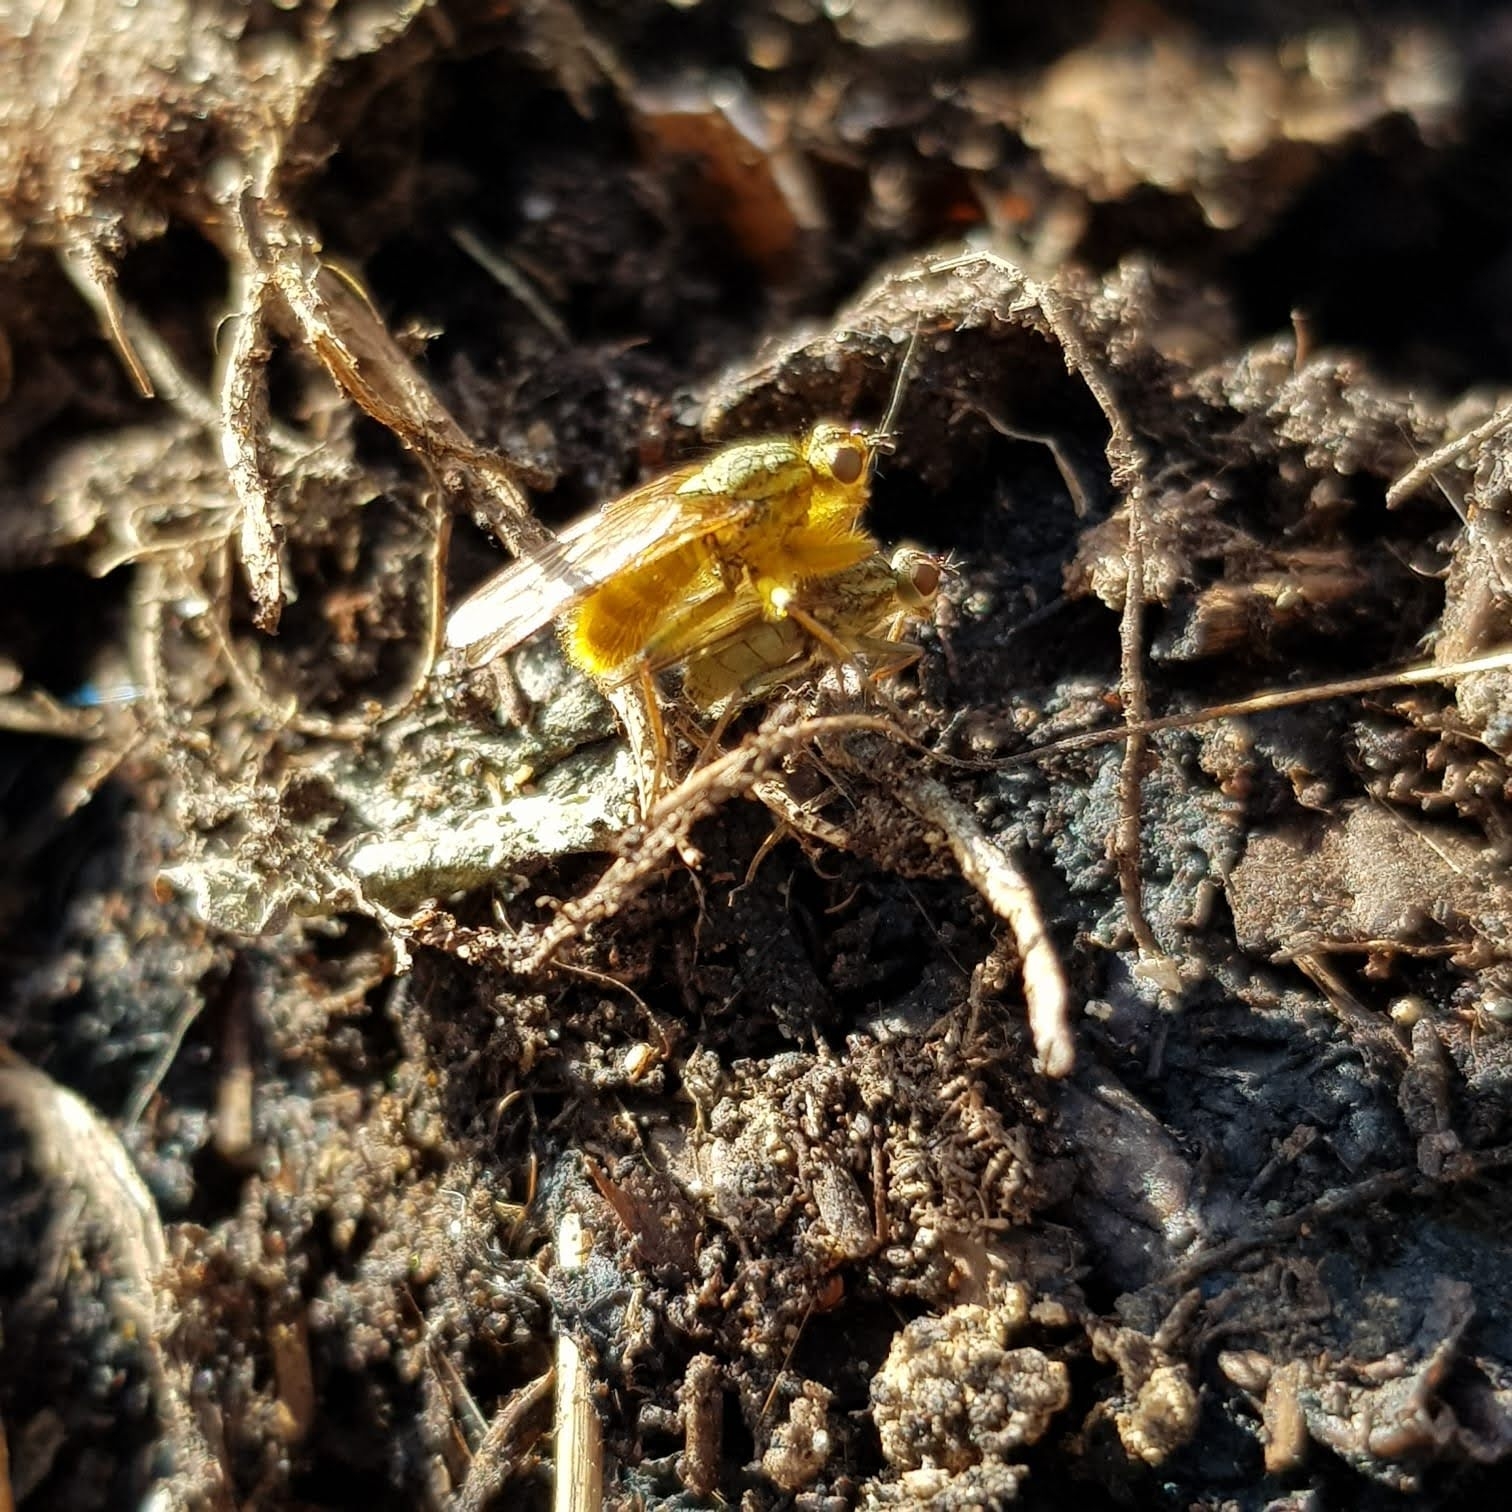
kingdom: Animalia
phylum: Arthropoda
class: Insecta
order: Diptera
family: Scathophagidae
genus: Scathophaga
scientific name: Scathophaga stercoraria
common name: Yellow dung fly
